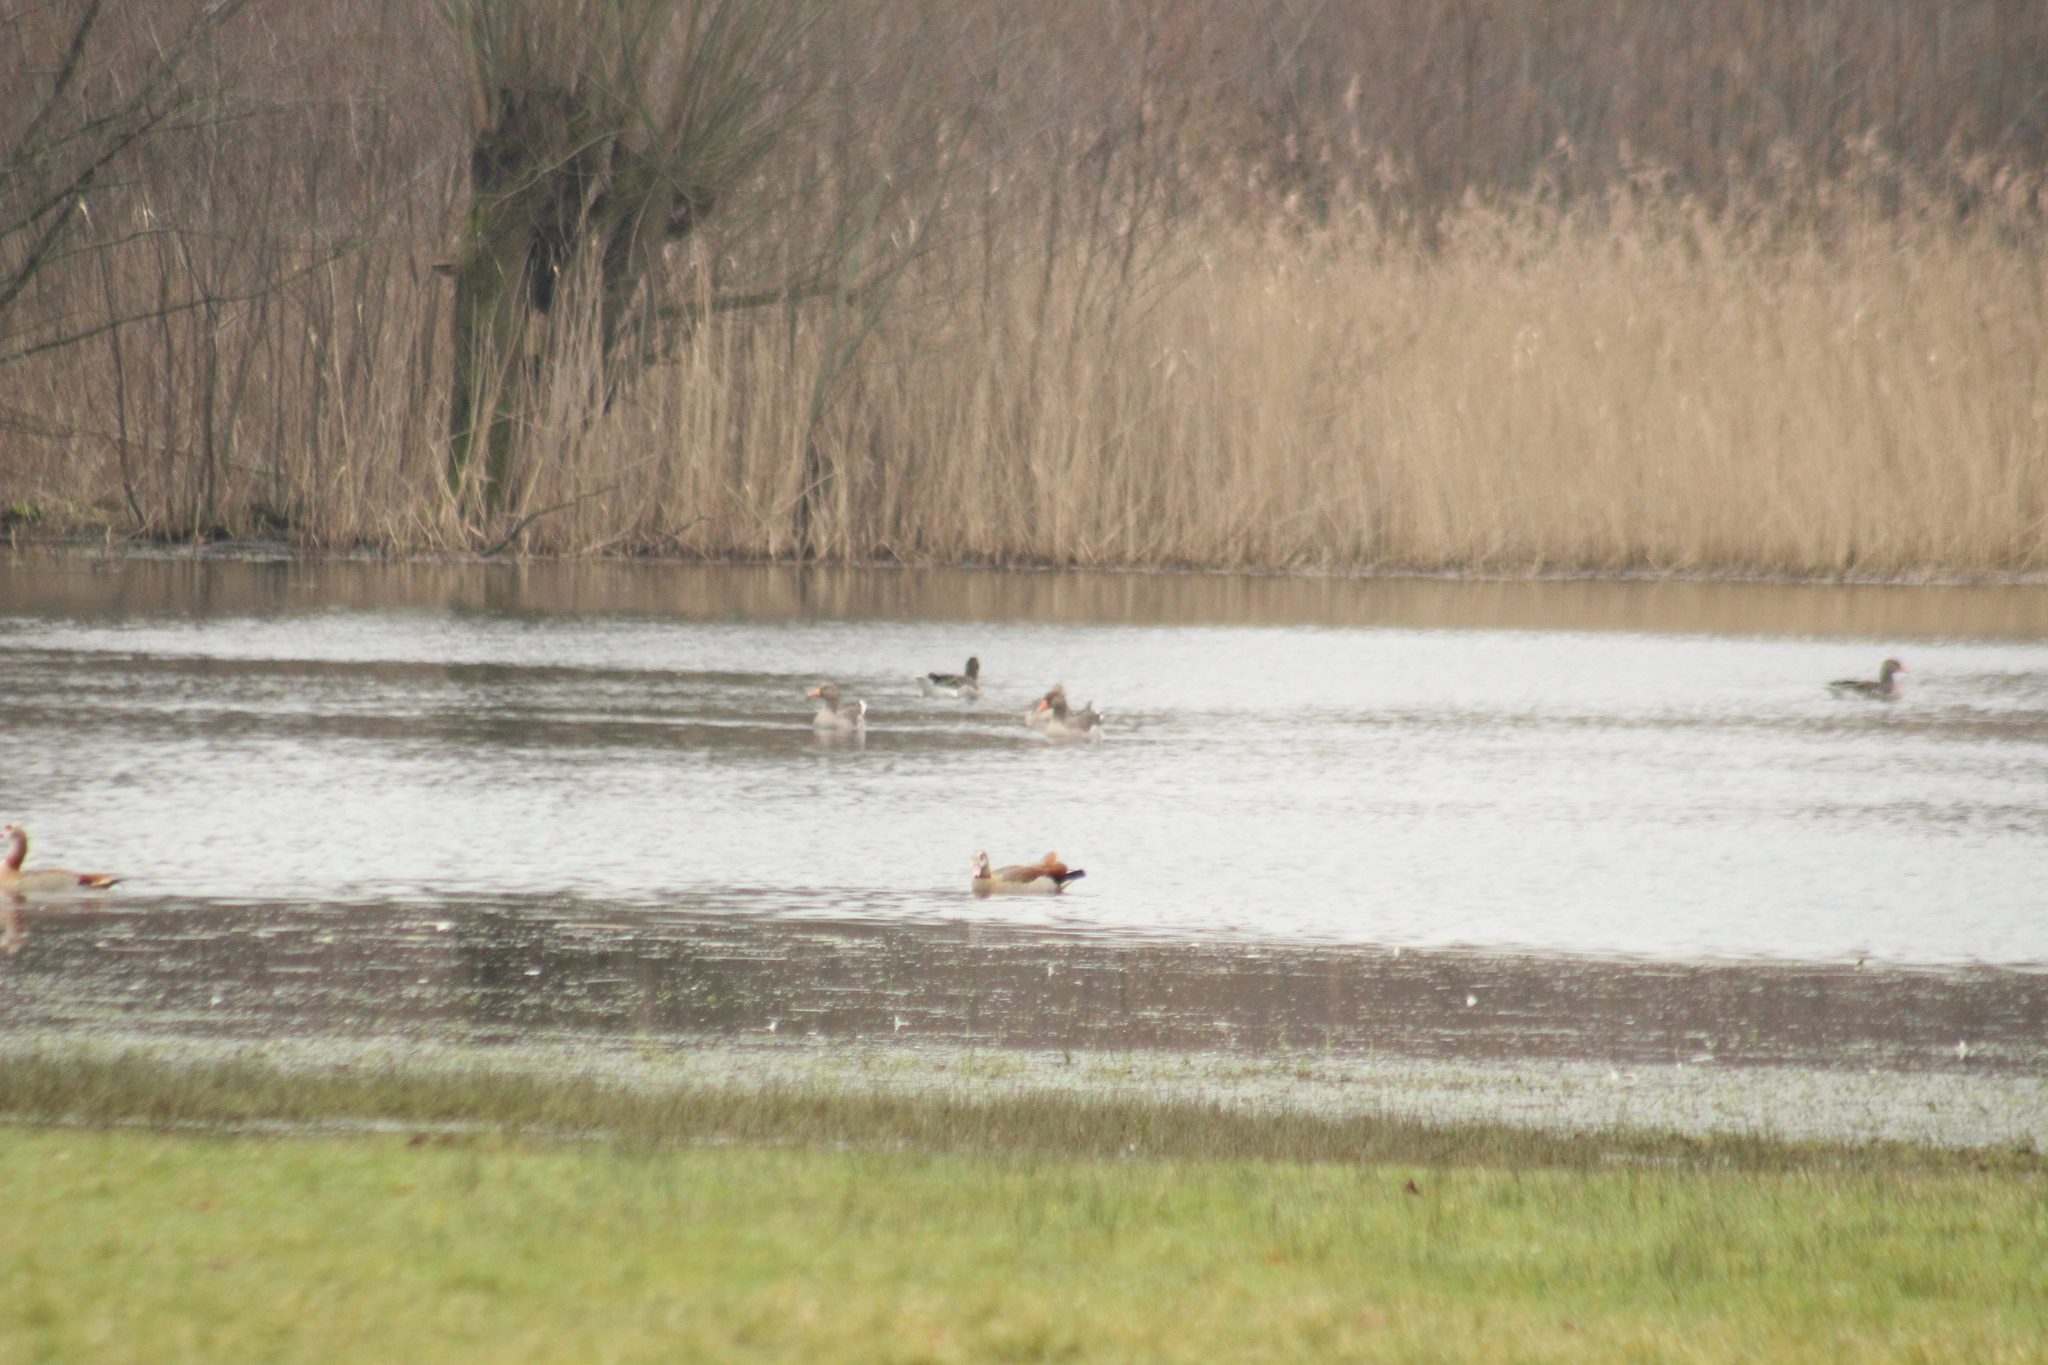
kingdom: Animalia
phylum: Chordata
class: Aves
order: Anseriformes
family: Anatidae
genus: Anser
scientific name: Anser anser
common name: Greylag goose
